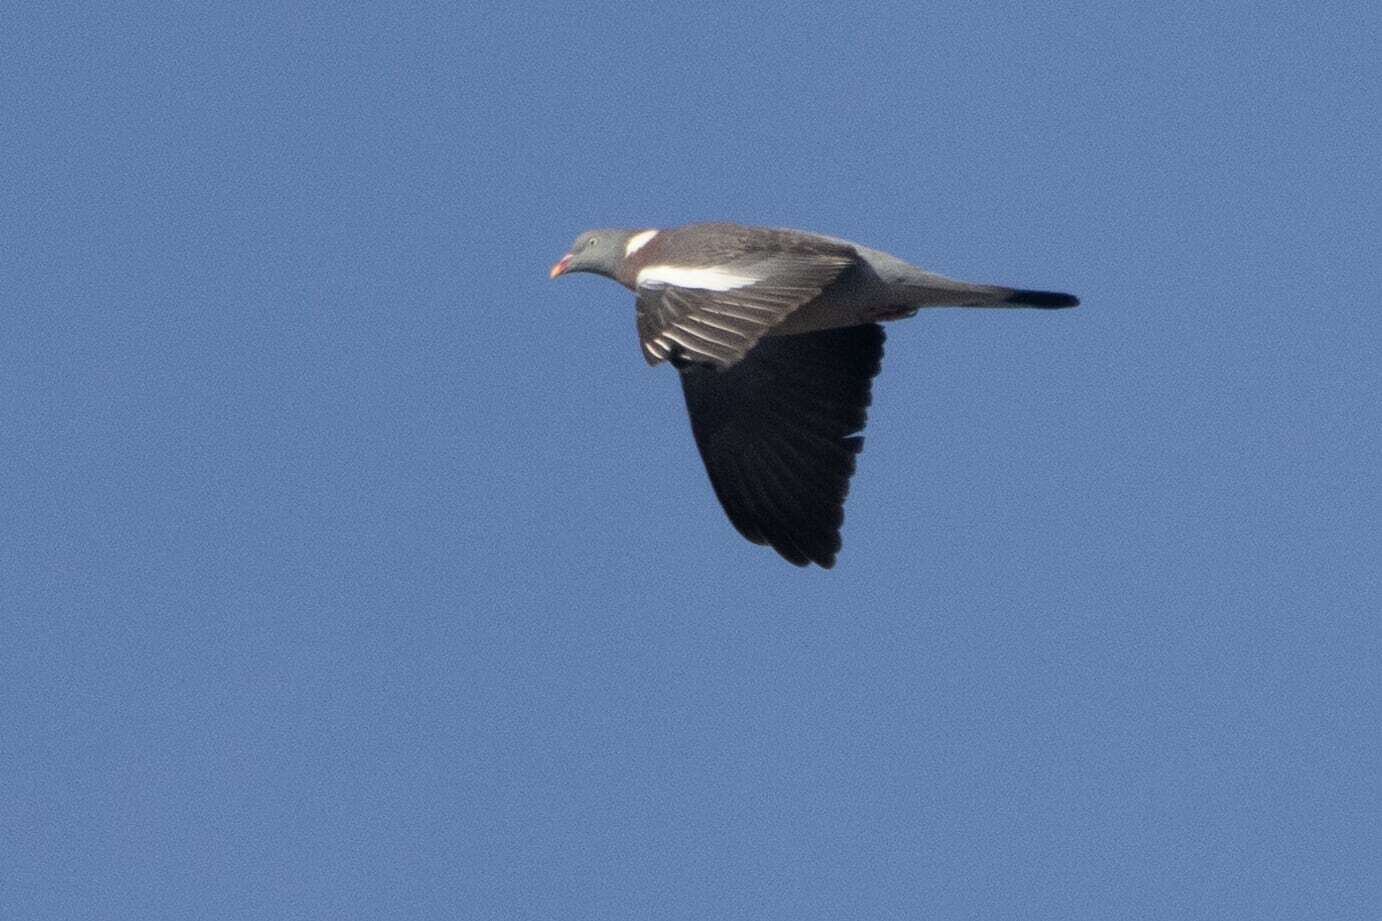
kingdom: Animalia
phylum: Chordata
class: Aves
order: Columbiformes
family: Columbidae
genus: Columba
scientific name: Columba palumbus
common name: Common wood pigeon
